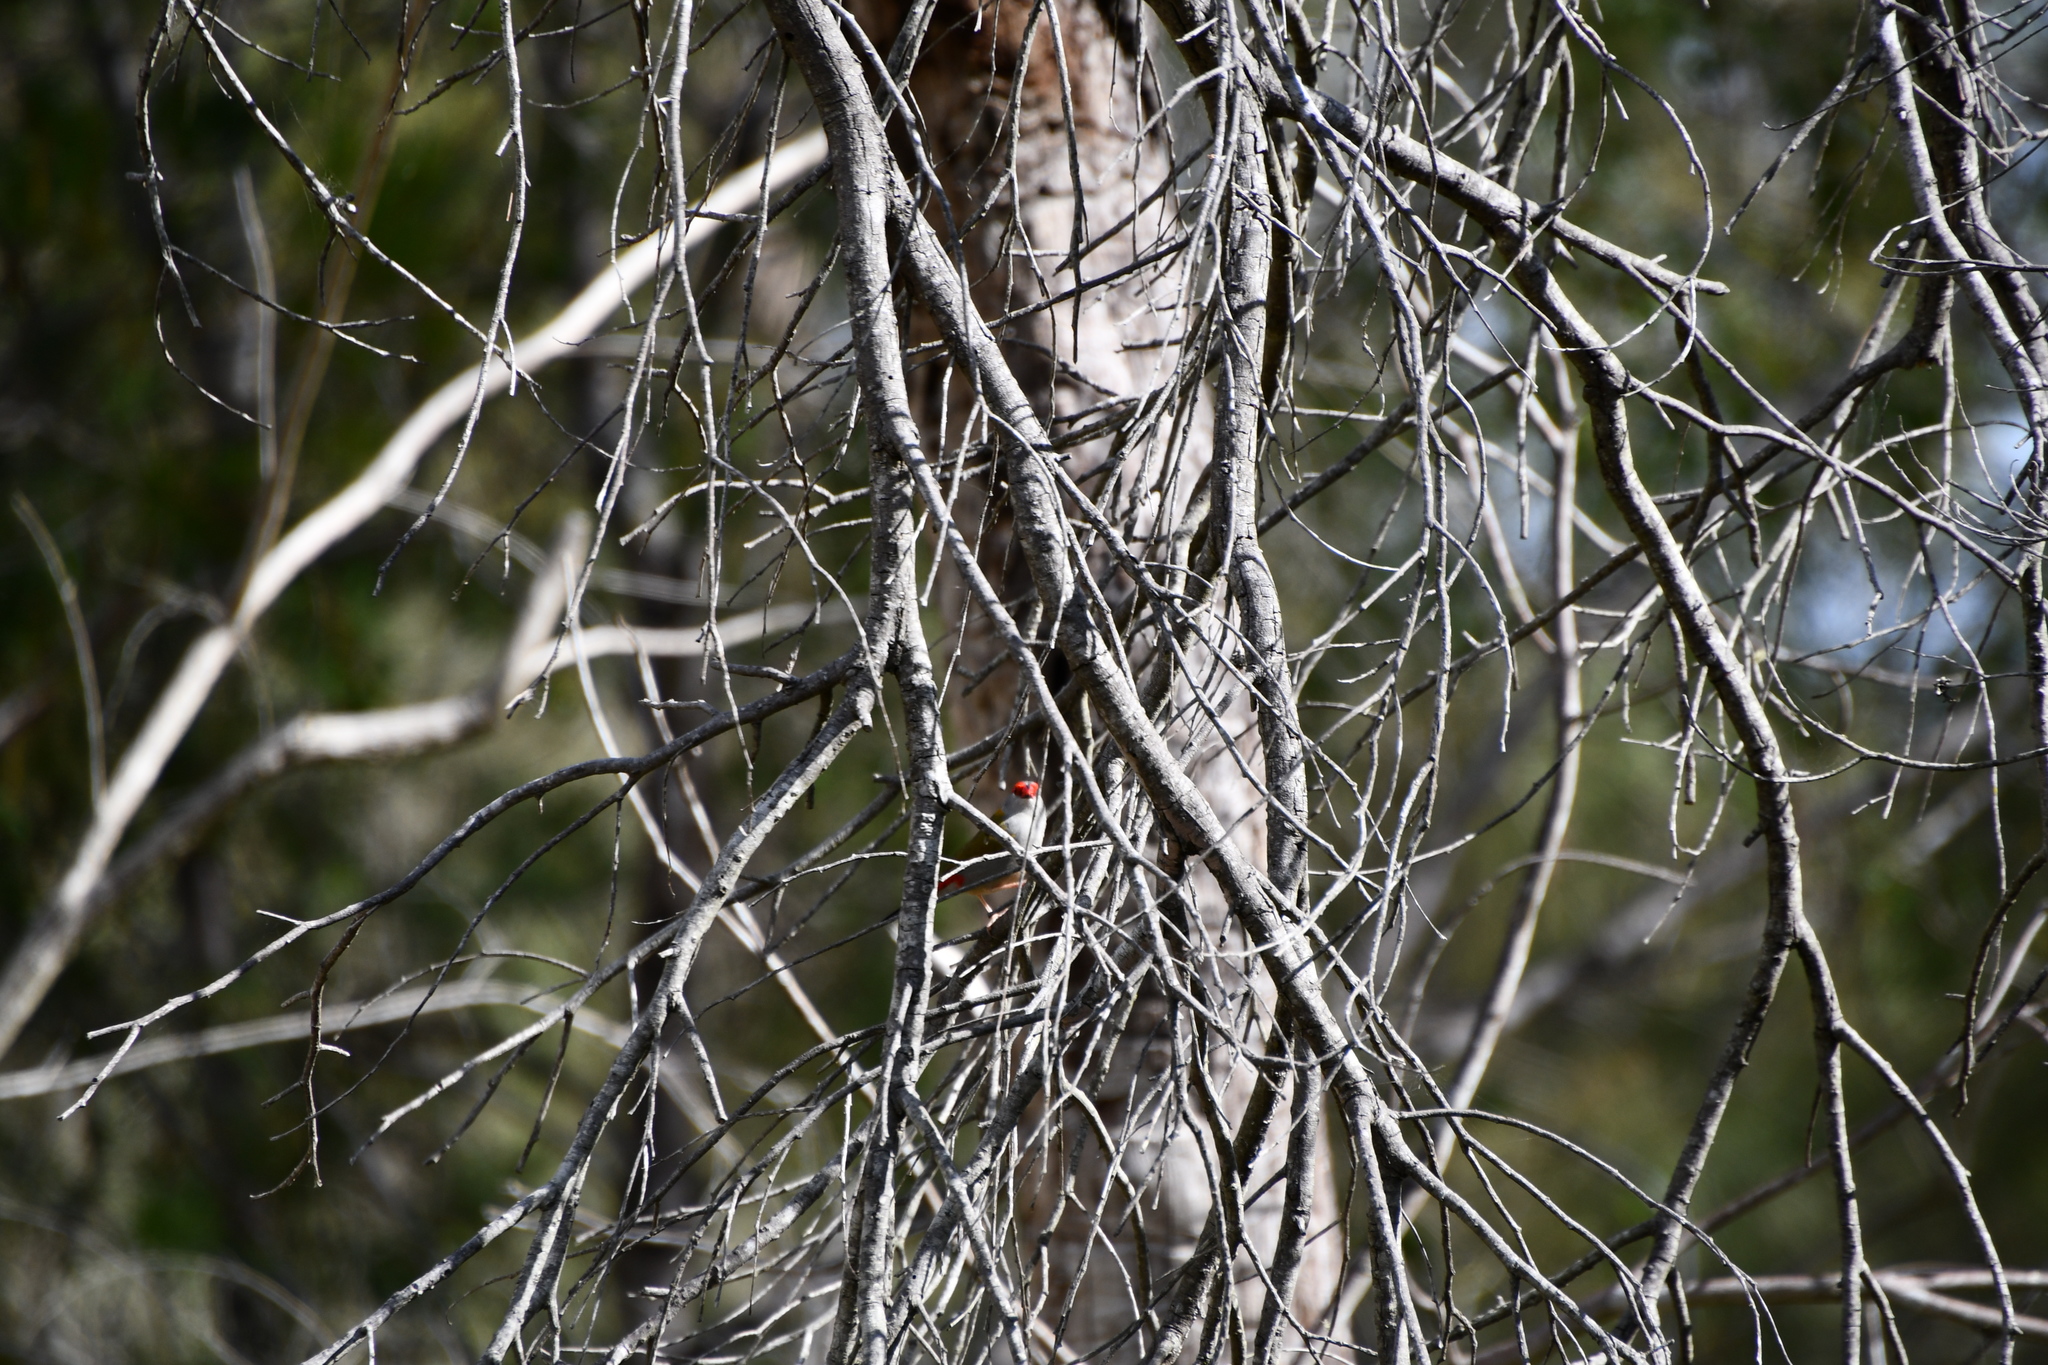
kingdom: Animalia
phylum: Chordata
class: Aves
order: Passeriformes
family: Estrildidae
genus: Neochmia
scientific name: Neochmia temporalis
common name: Red-browed finch
